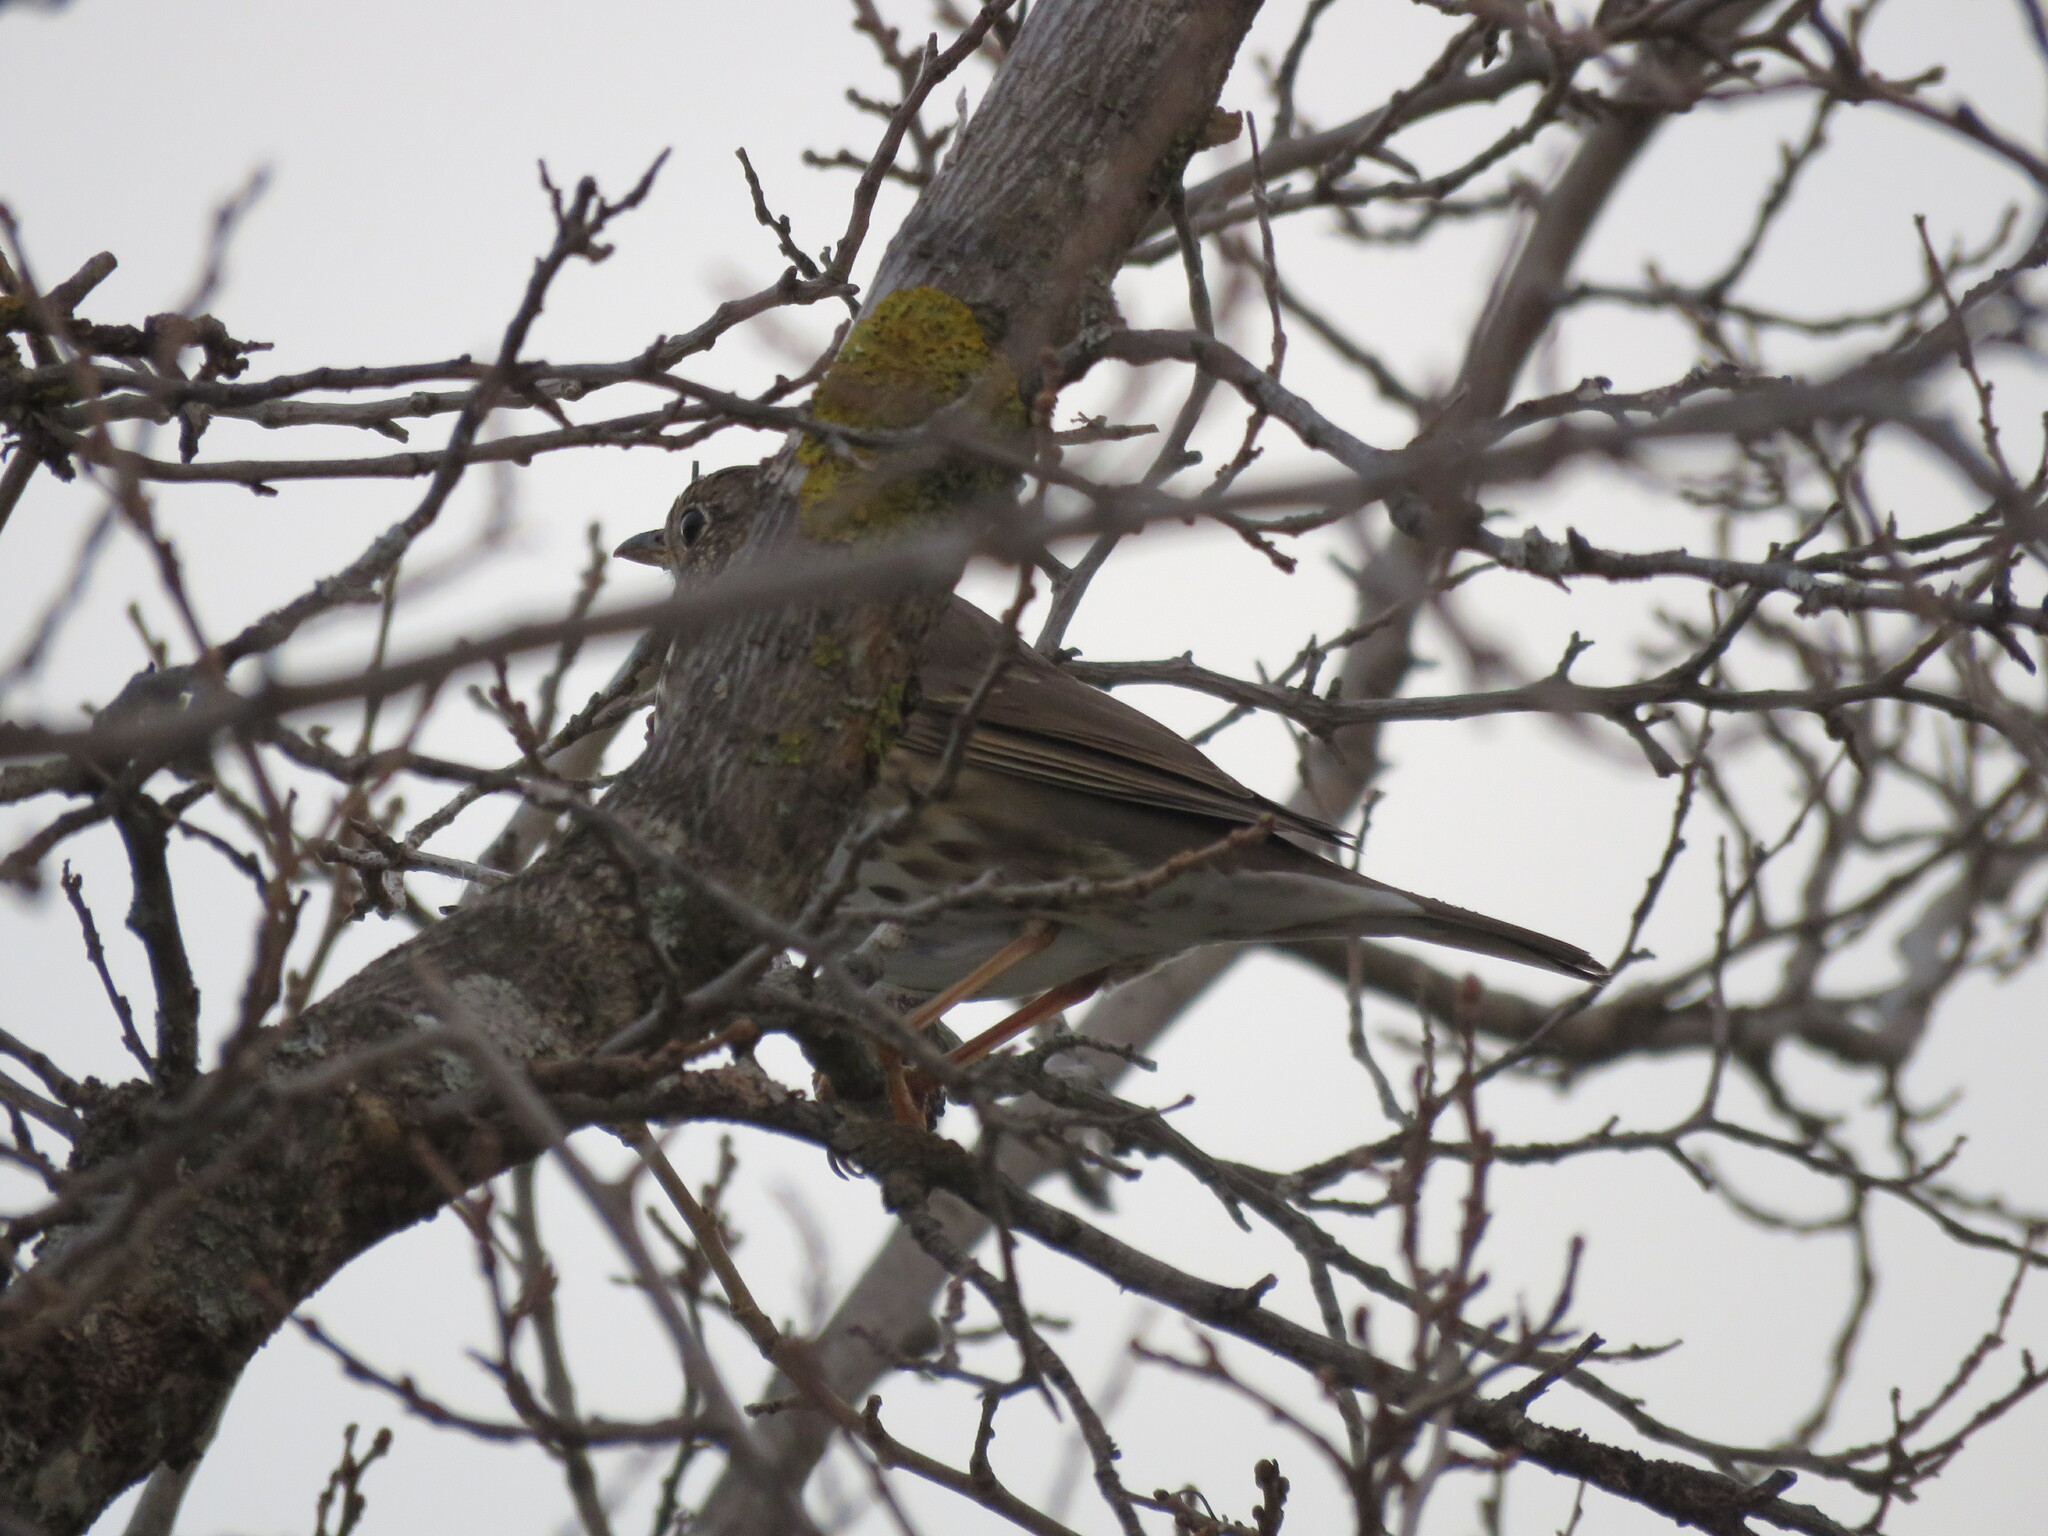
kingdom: Animalia
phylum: Chordata
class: Aves
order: Passeriformes
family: Turdidae
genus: Turdus
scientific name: Turdus philomelos
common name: Song thrush
